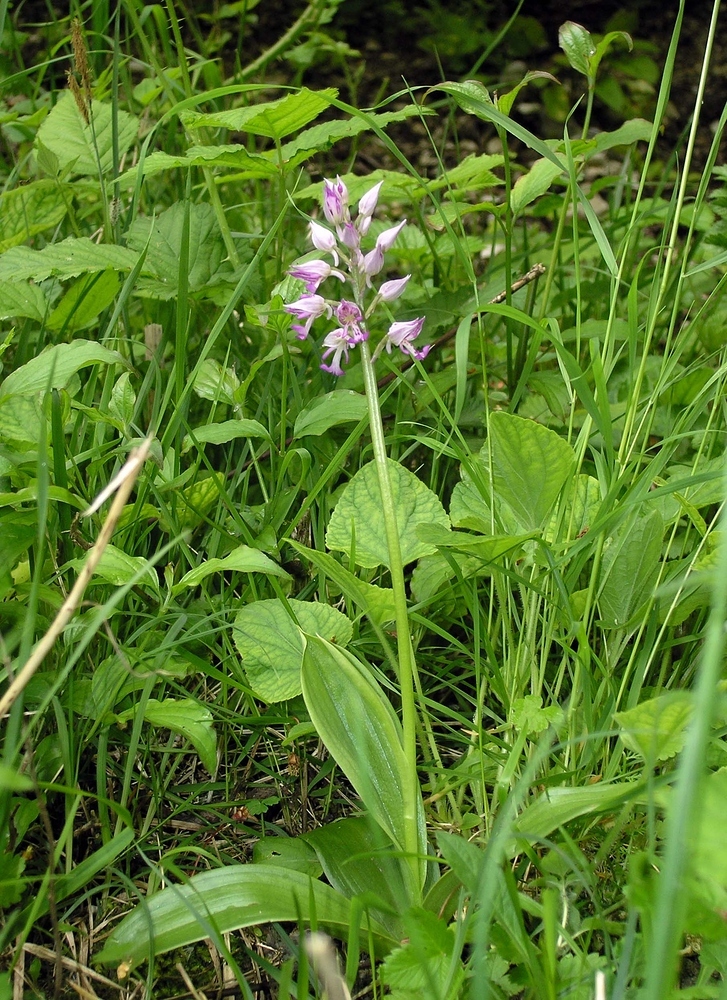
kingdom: Plantae
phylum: Tracheophyta
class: Liliopsida
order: Asparagales
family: Orchidaceae
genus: Orchis
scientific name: Orchis militaris
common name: Military orchid
